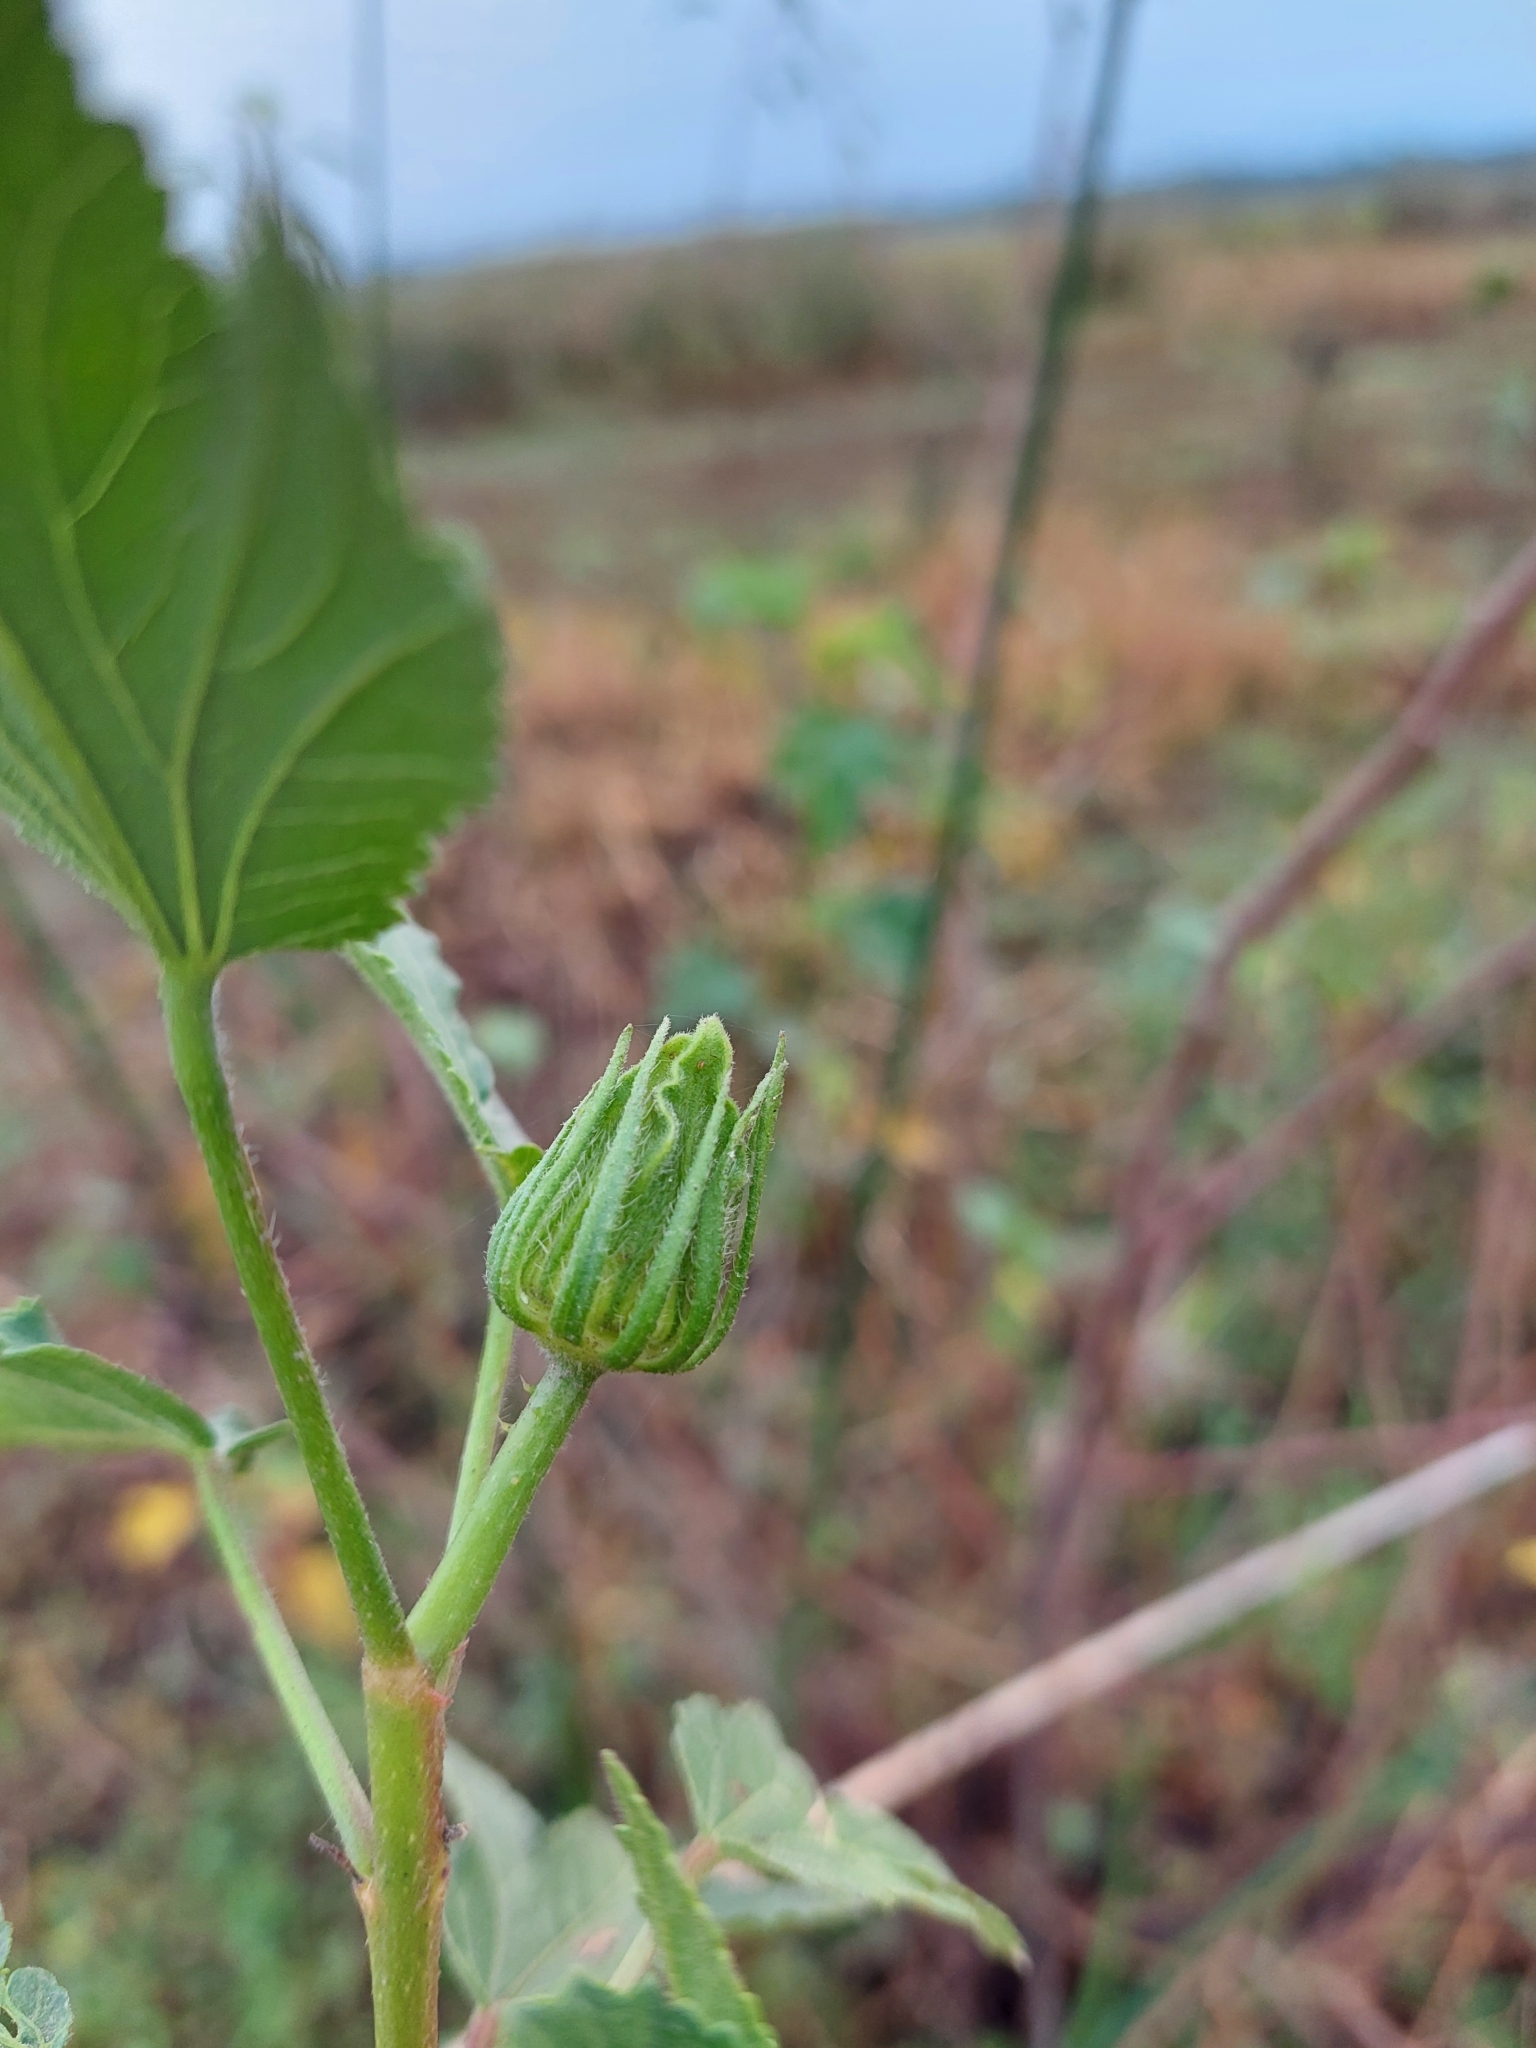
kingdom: Plantae
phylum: Tracheophyta
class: Magnoliopsida
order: Malvales
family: Malvaceae
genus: Hibiscus
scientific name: Hibiscus striatus
